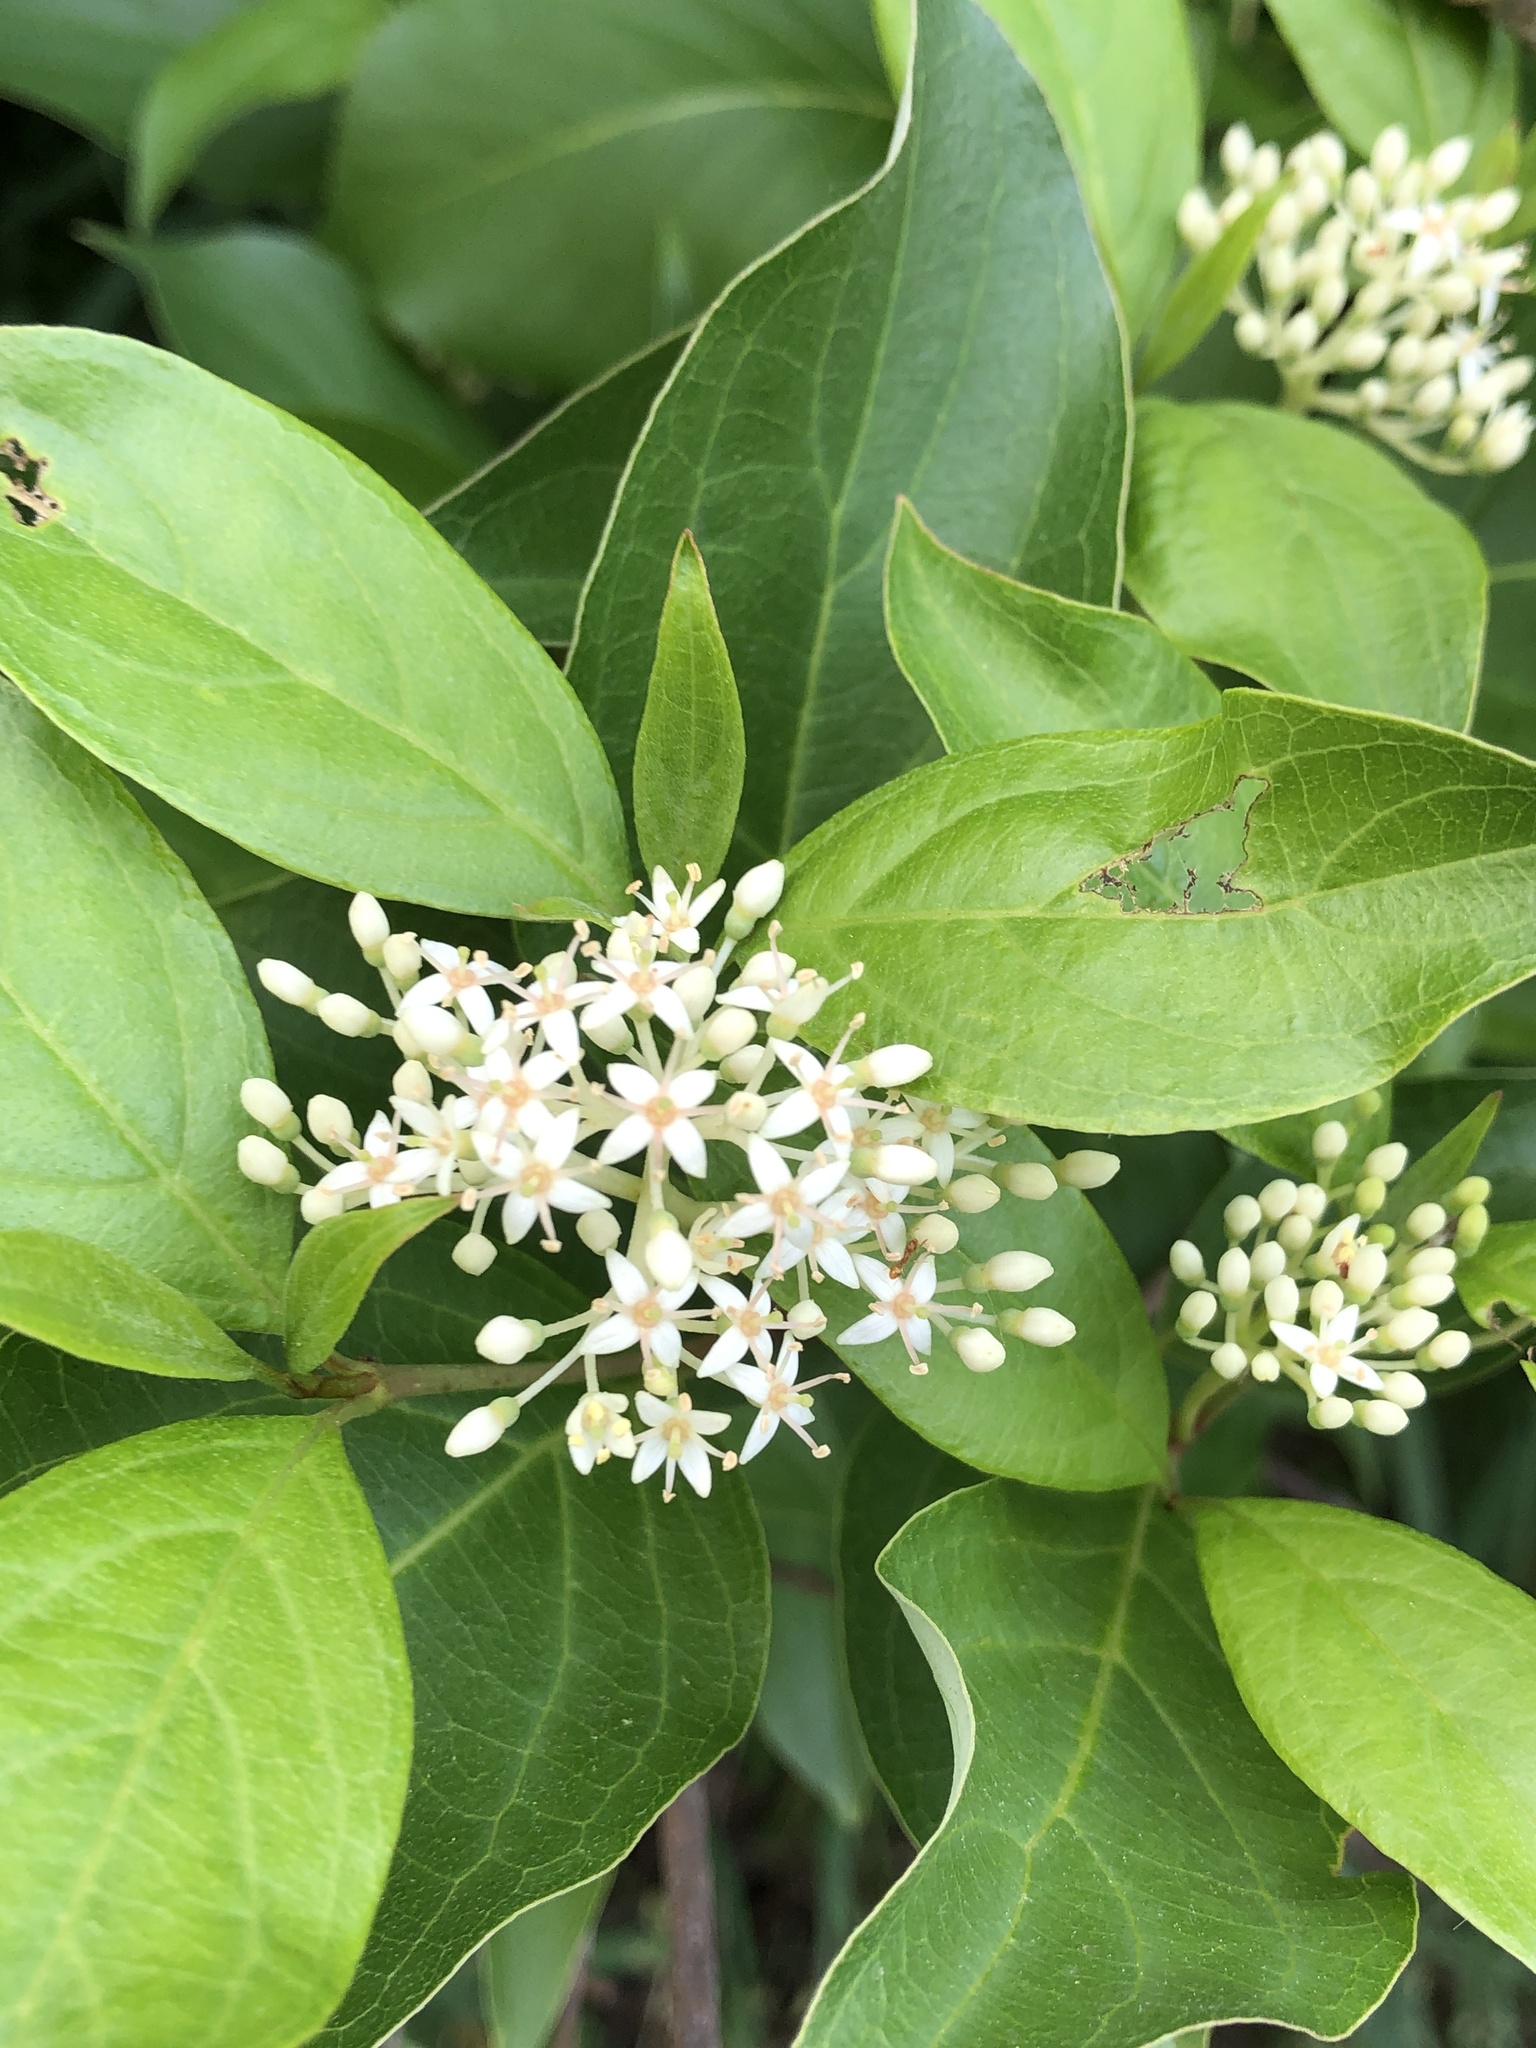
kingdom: Plantae
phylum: Tracheophyta
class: Magnoliopsida
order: Cornales
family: Cornaceae
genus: Cornus
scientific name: Cornus racemosa
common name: Panicled dogwood
